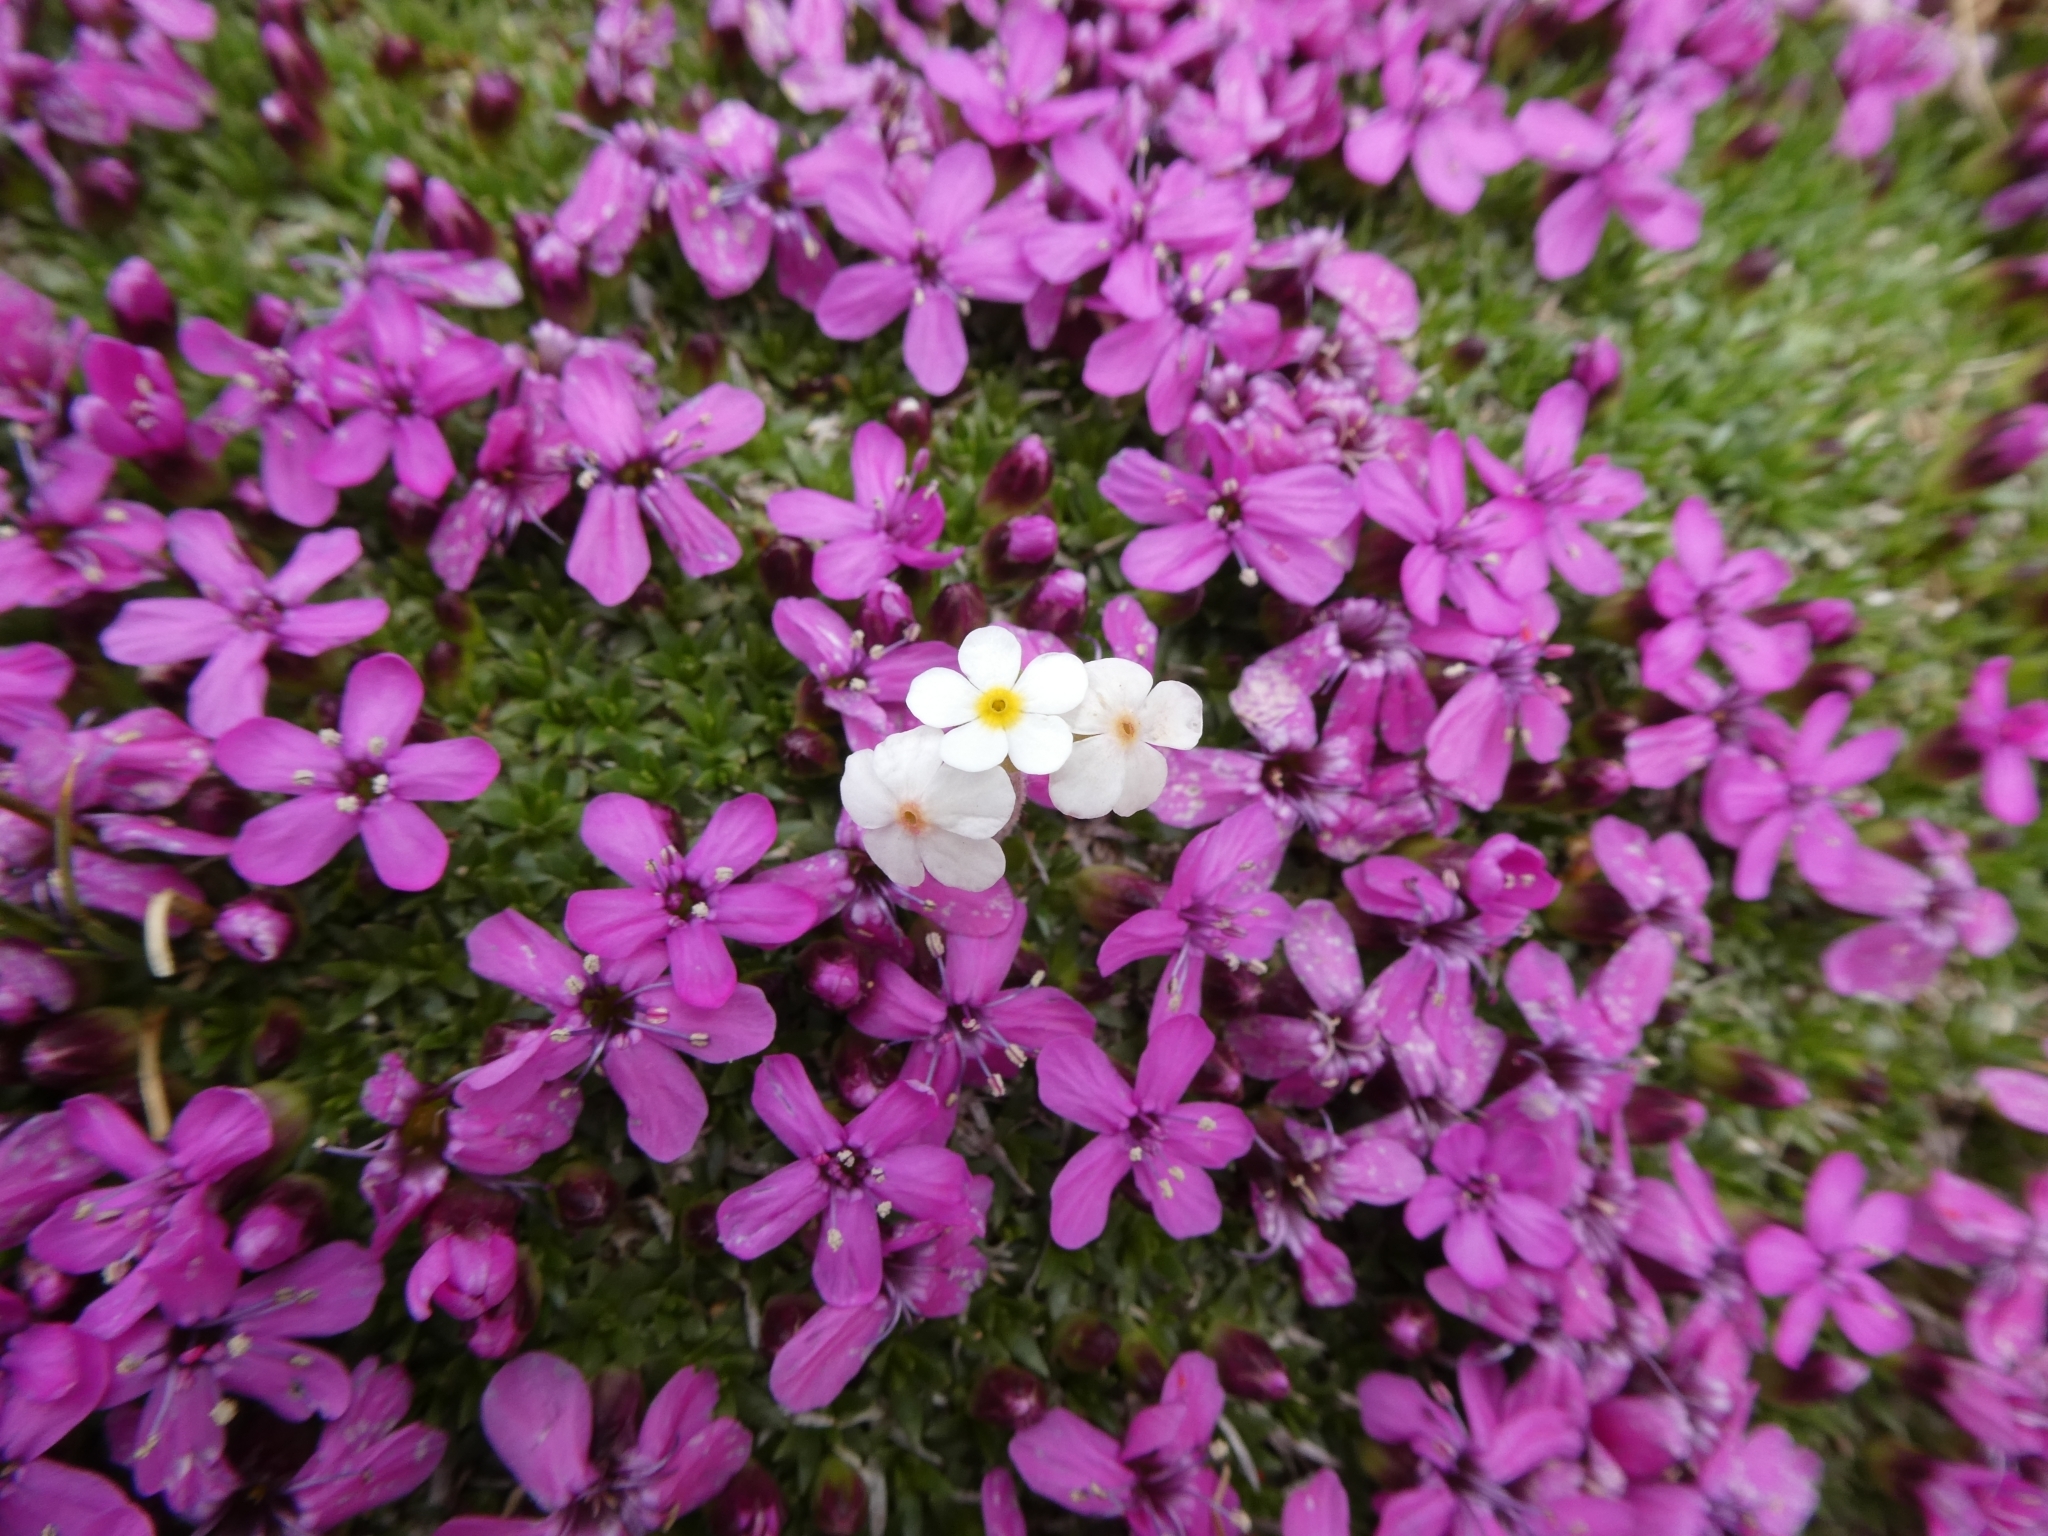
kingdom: Plantae
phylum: Tracheophyta
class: Magnoliopsida
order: Caryophyllales
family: Caryophyllaceae
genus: Silene
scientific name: Silene acaulis
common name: Moss campion
